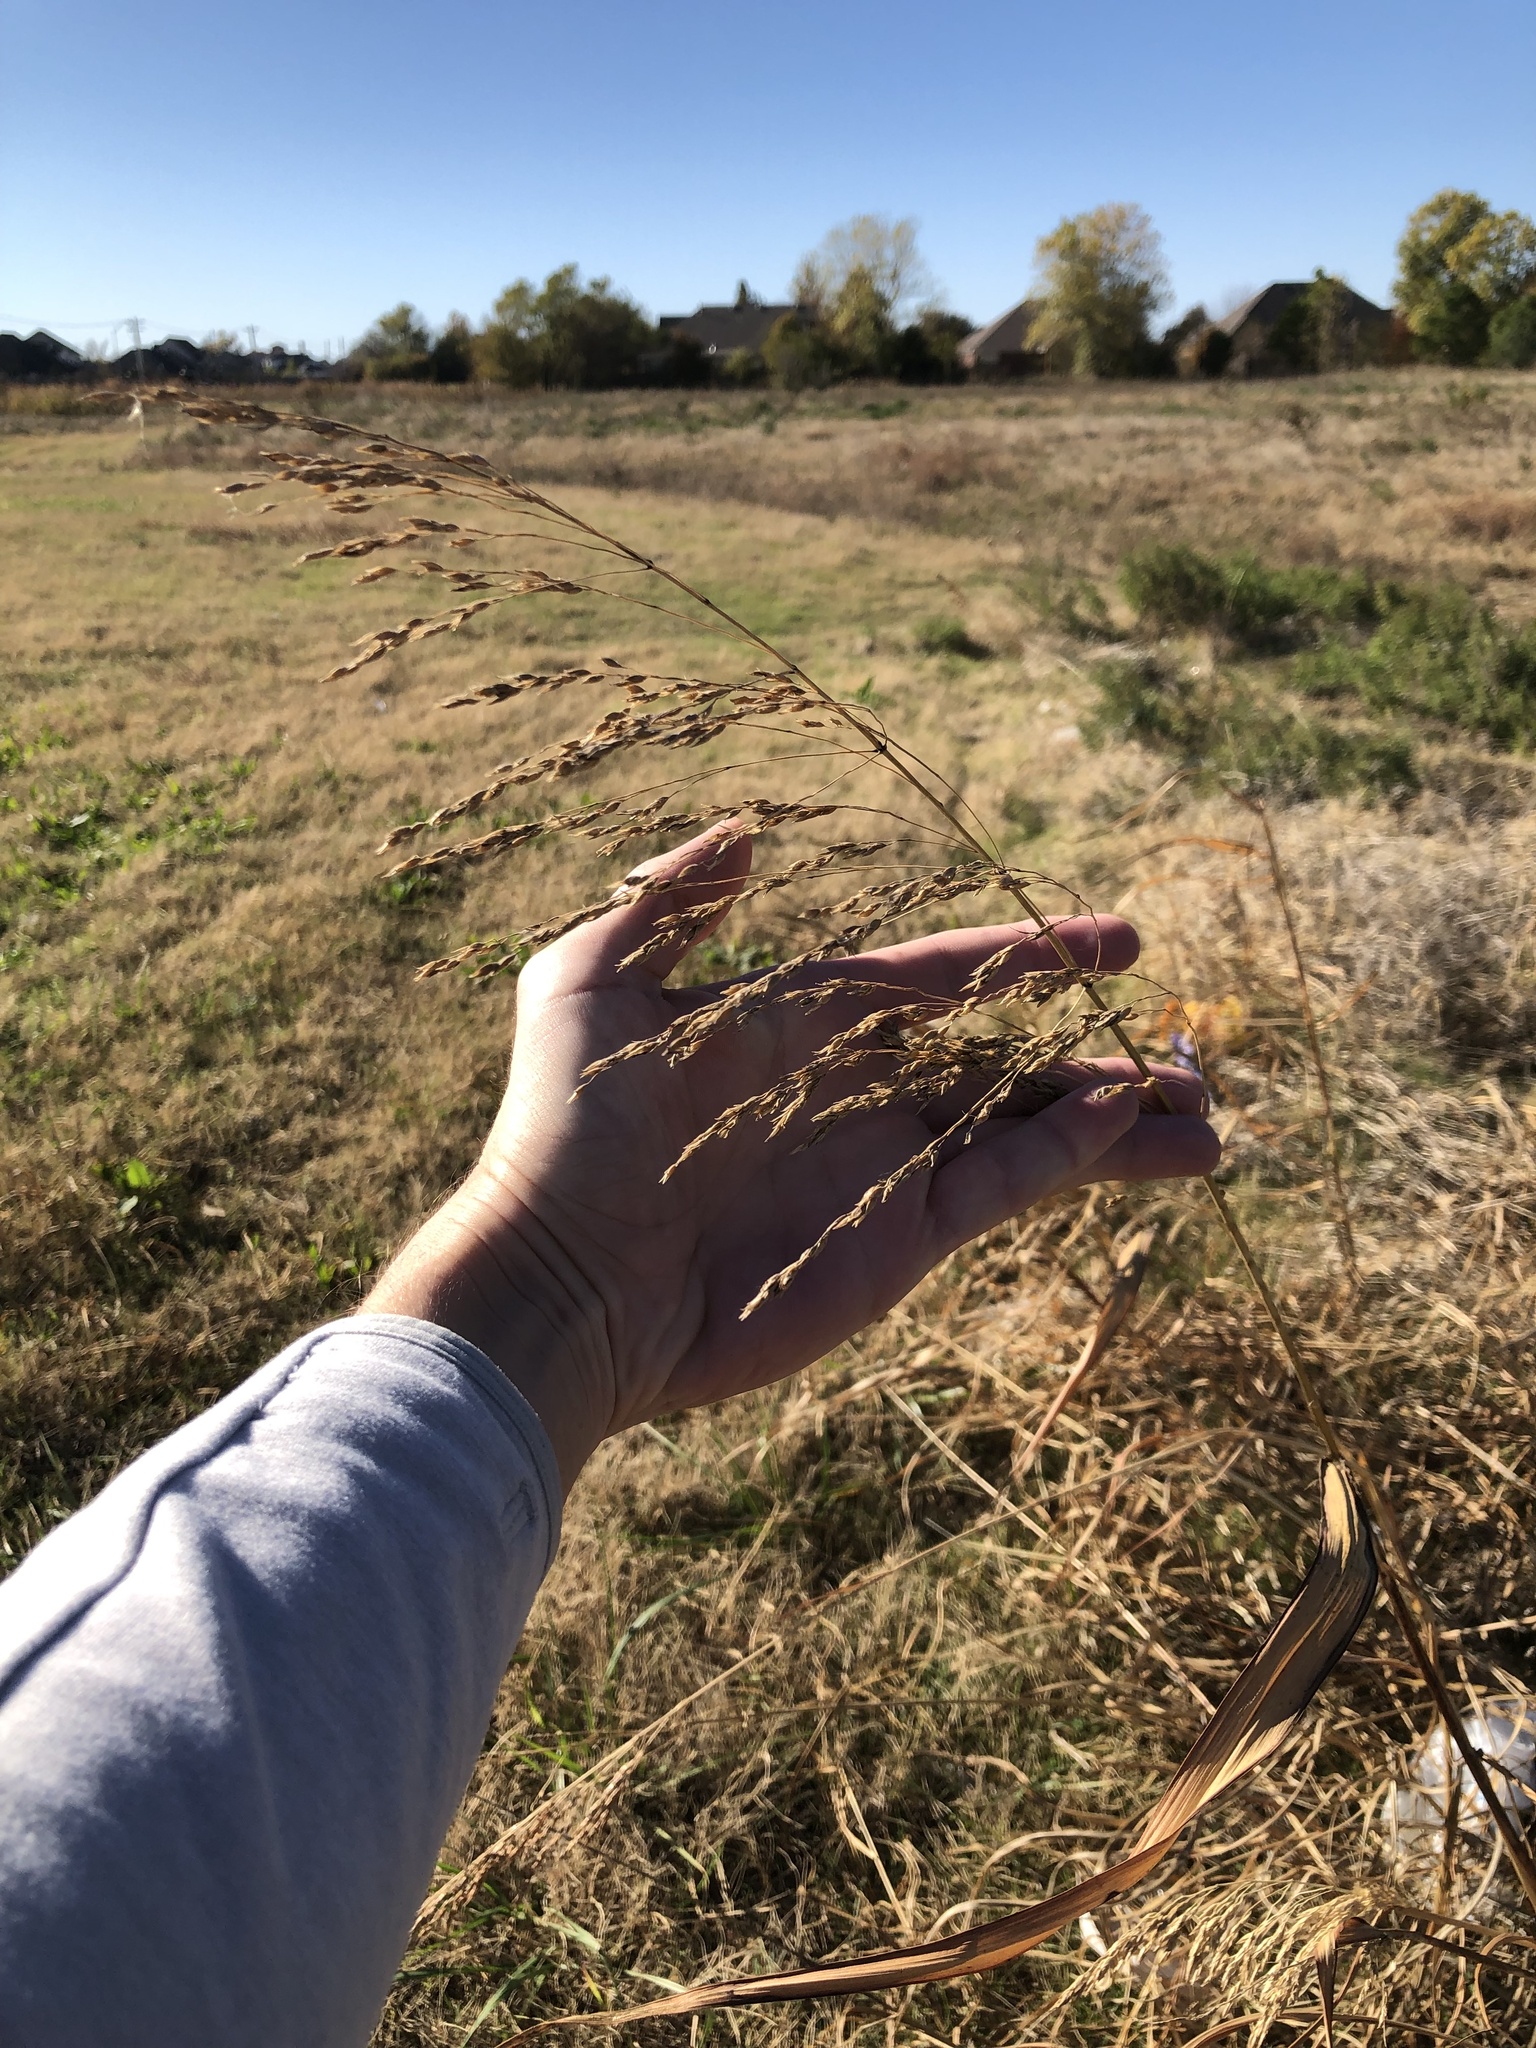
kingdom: Plantae
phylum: Tracheophyta
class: Liliopsida
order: Poales
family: Poaceae
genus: Sorghum
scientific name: Sorghum halepense
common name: Johnson-grass
